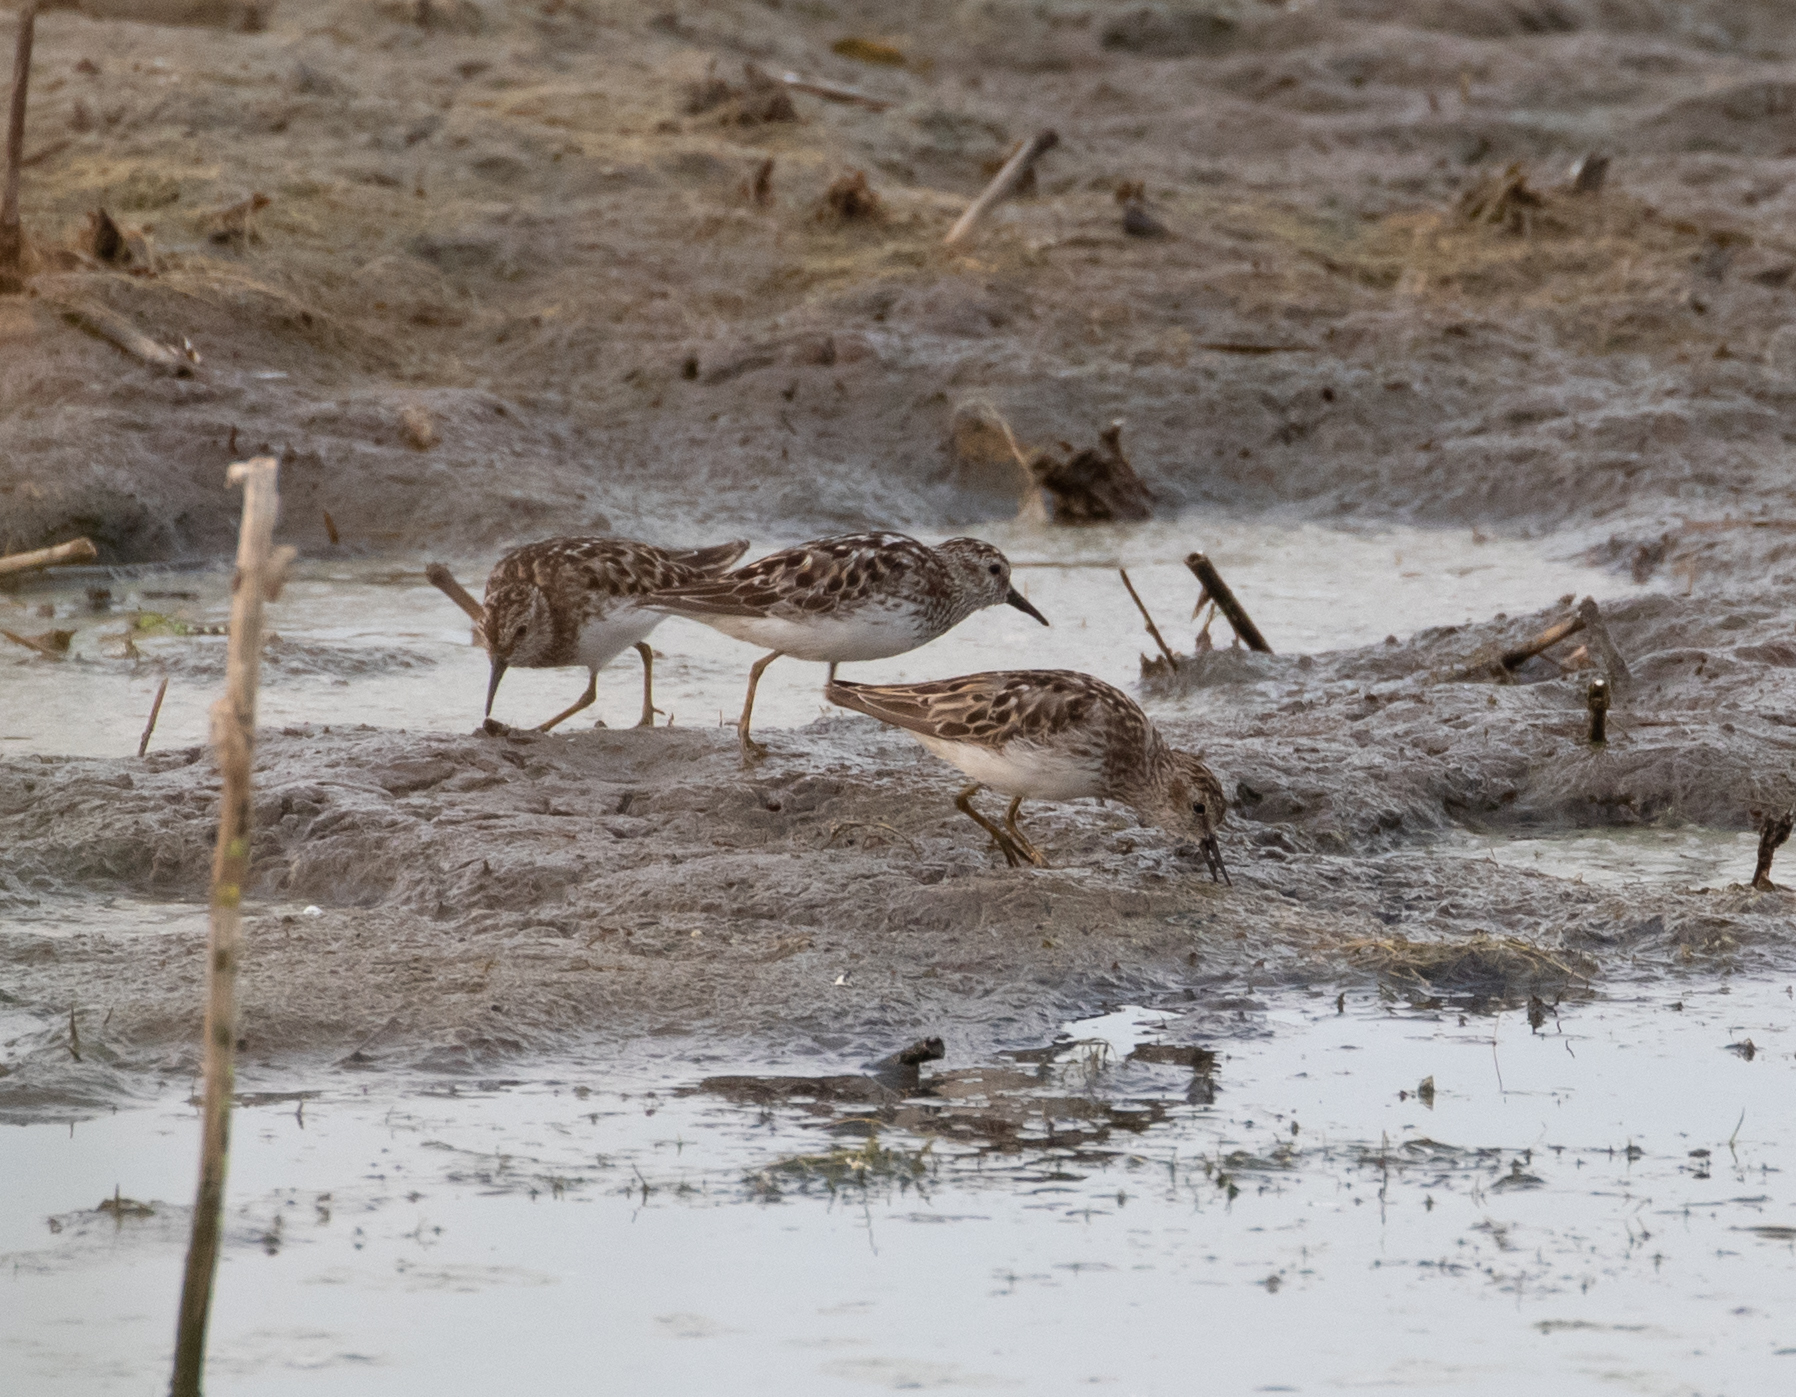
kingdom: Animalia
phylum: Chordata
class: Aves
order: Charadriiformes
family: Scolopacidae
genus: Calidris
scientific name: Calidris minutilla
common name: Least sandpiper
